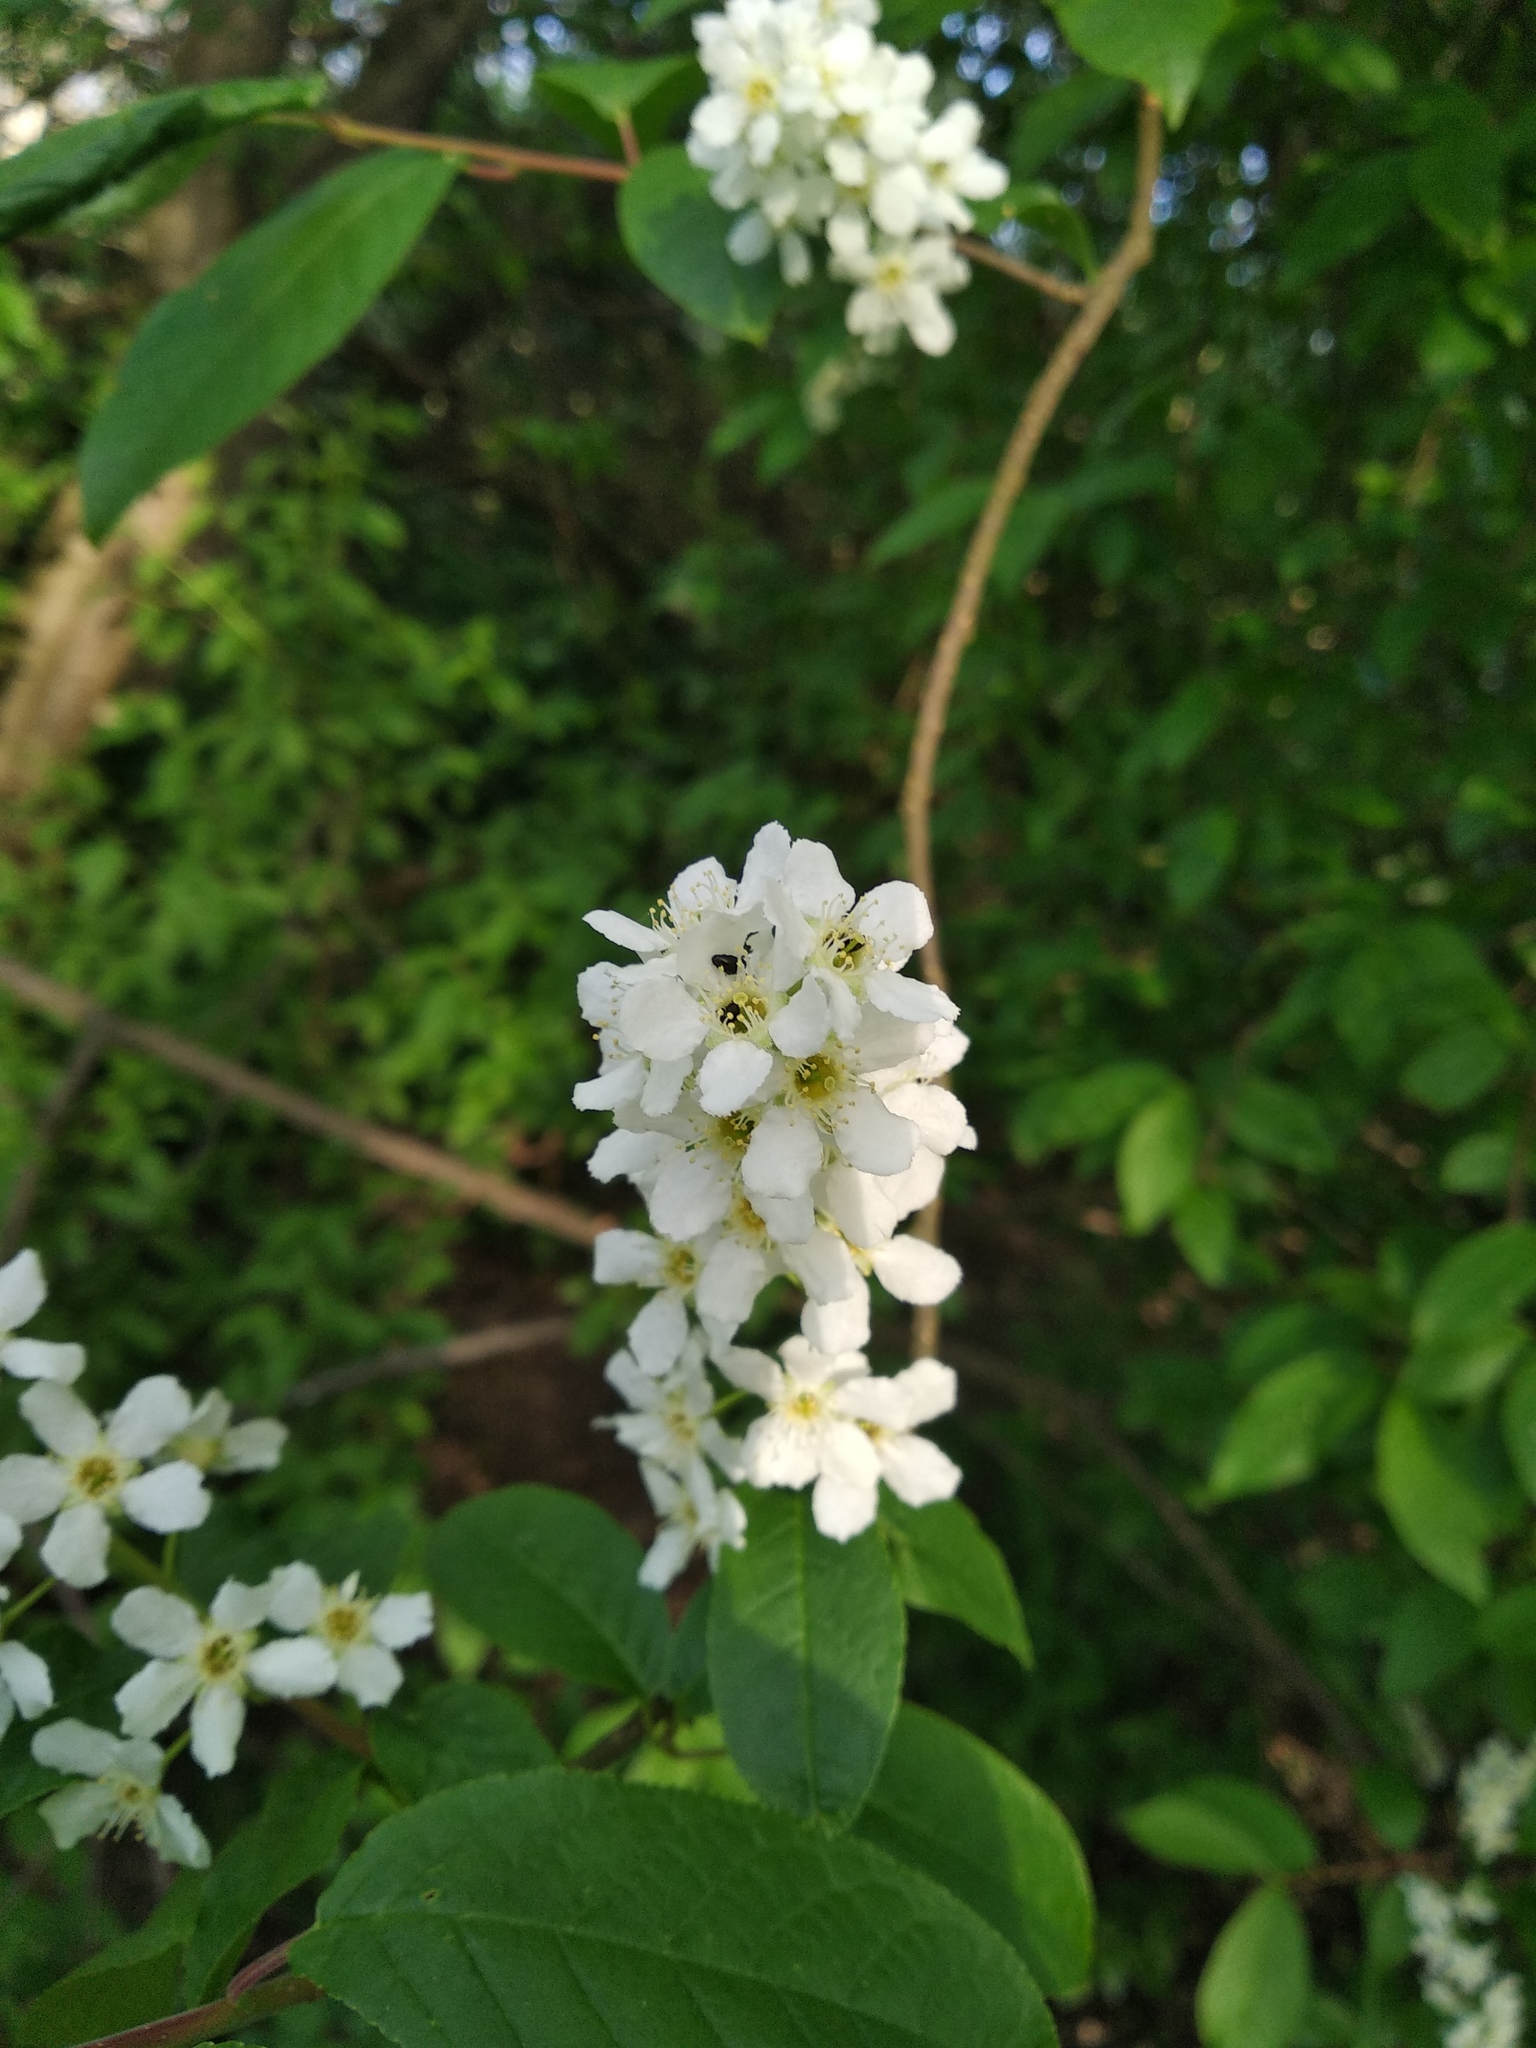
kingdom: Plantae
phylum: Tracheophyta
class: Magnoliopsida
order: Rosales
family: Rosaceae
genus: Prunus
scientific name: Prunus padus
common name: Bird cherry
